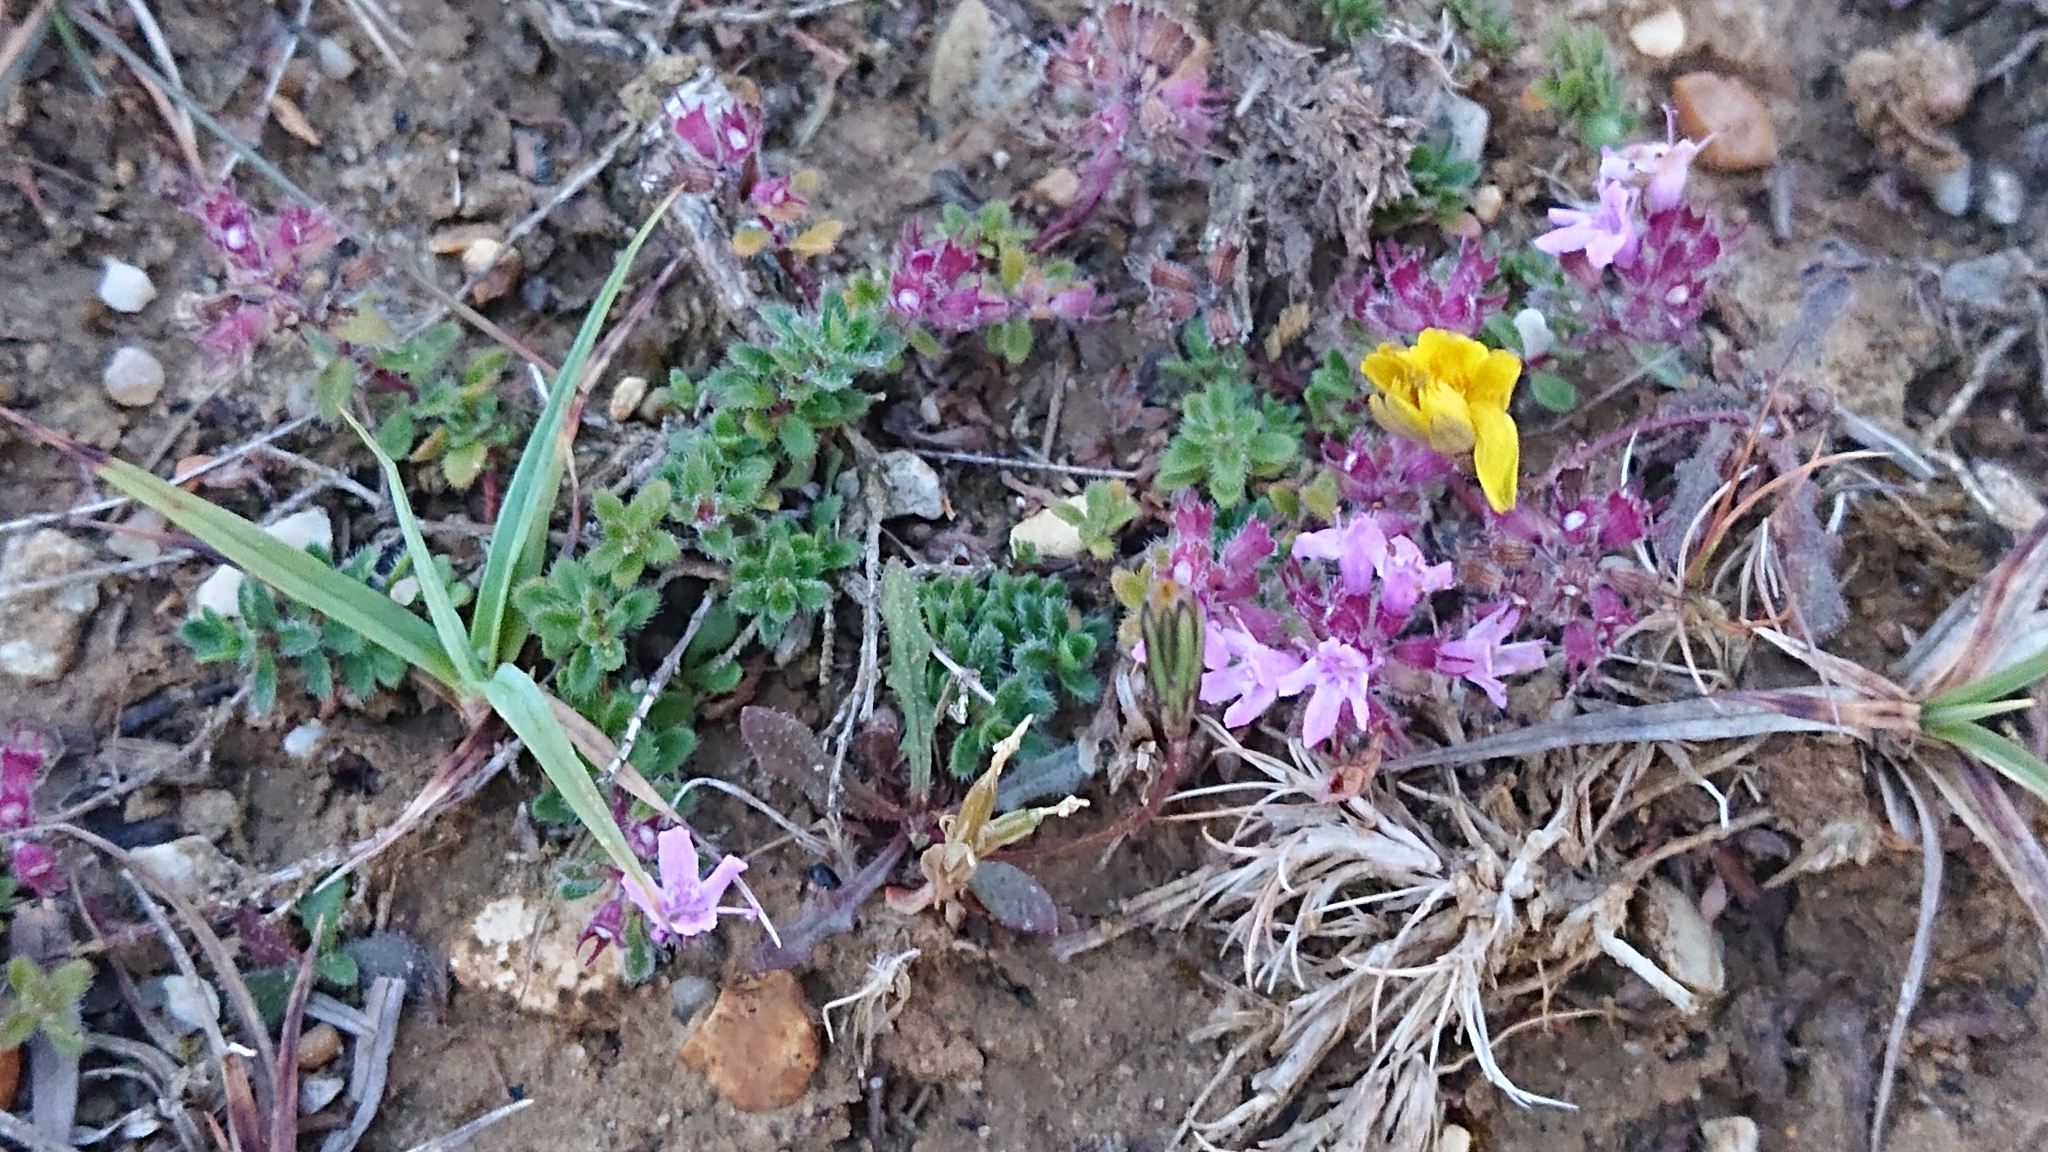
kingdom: Plantae
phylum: Tracheophyta
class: Magnoliopsida
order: Lamiales
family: Lamiaceae
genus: Thymus
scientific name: Thymus praecox
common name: Wild thyme
